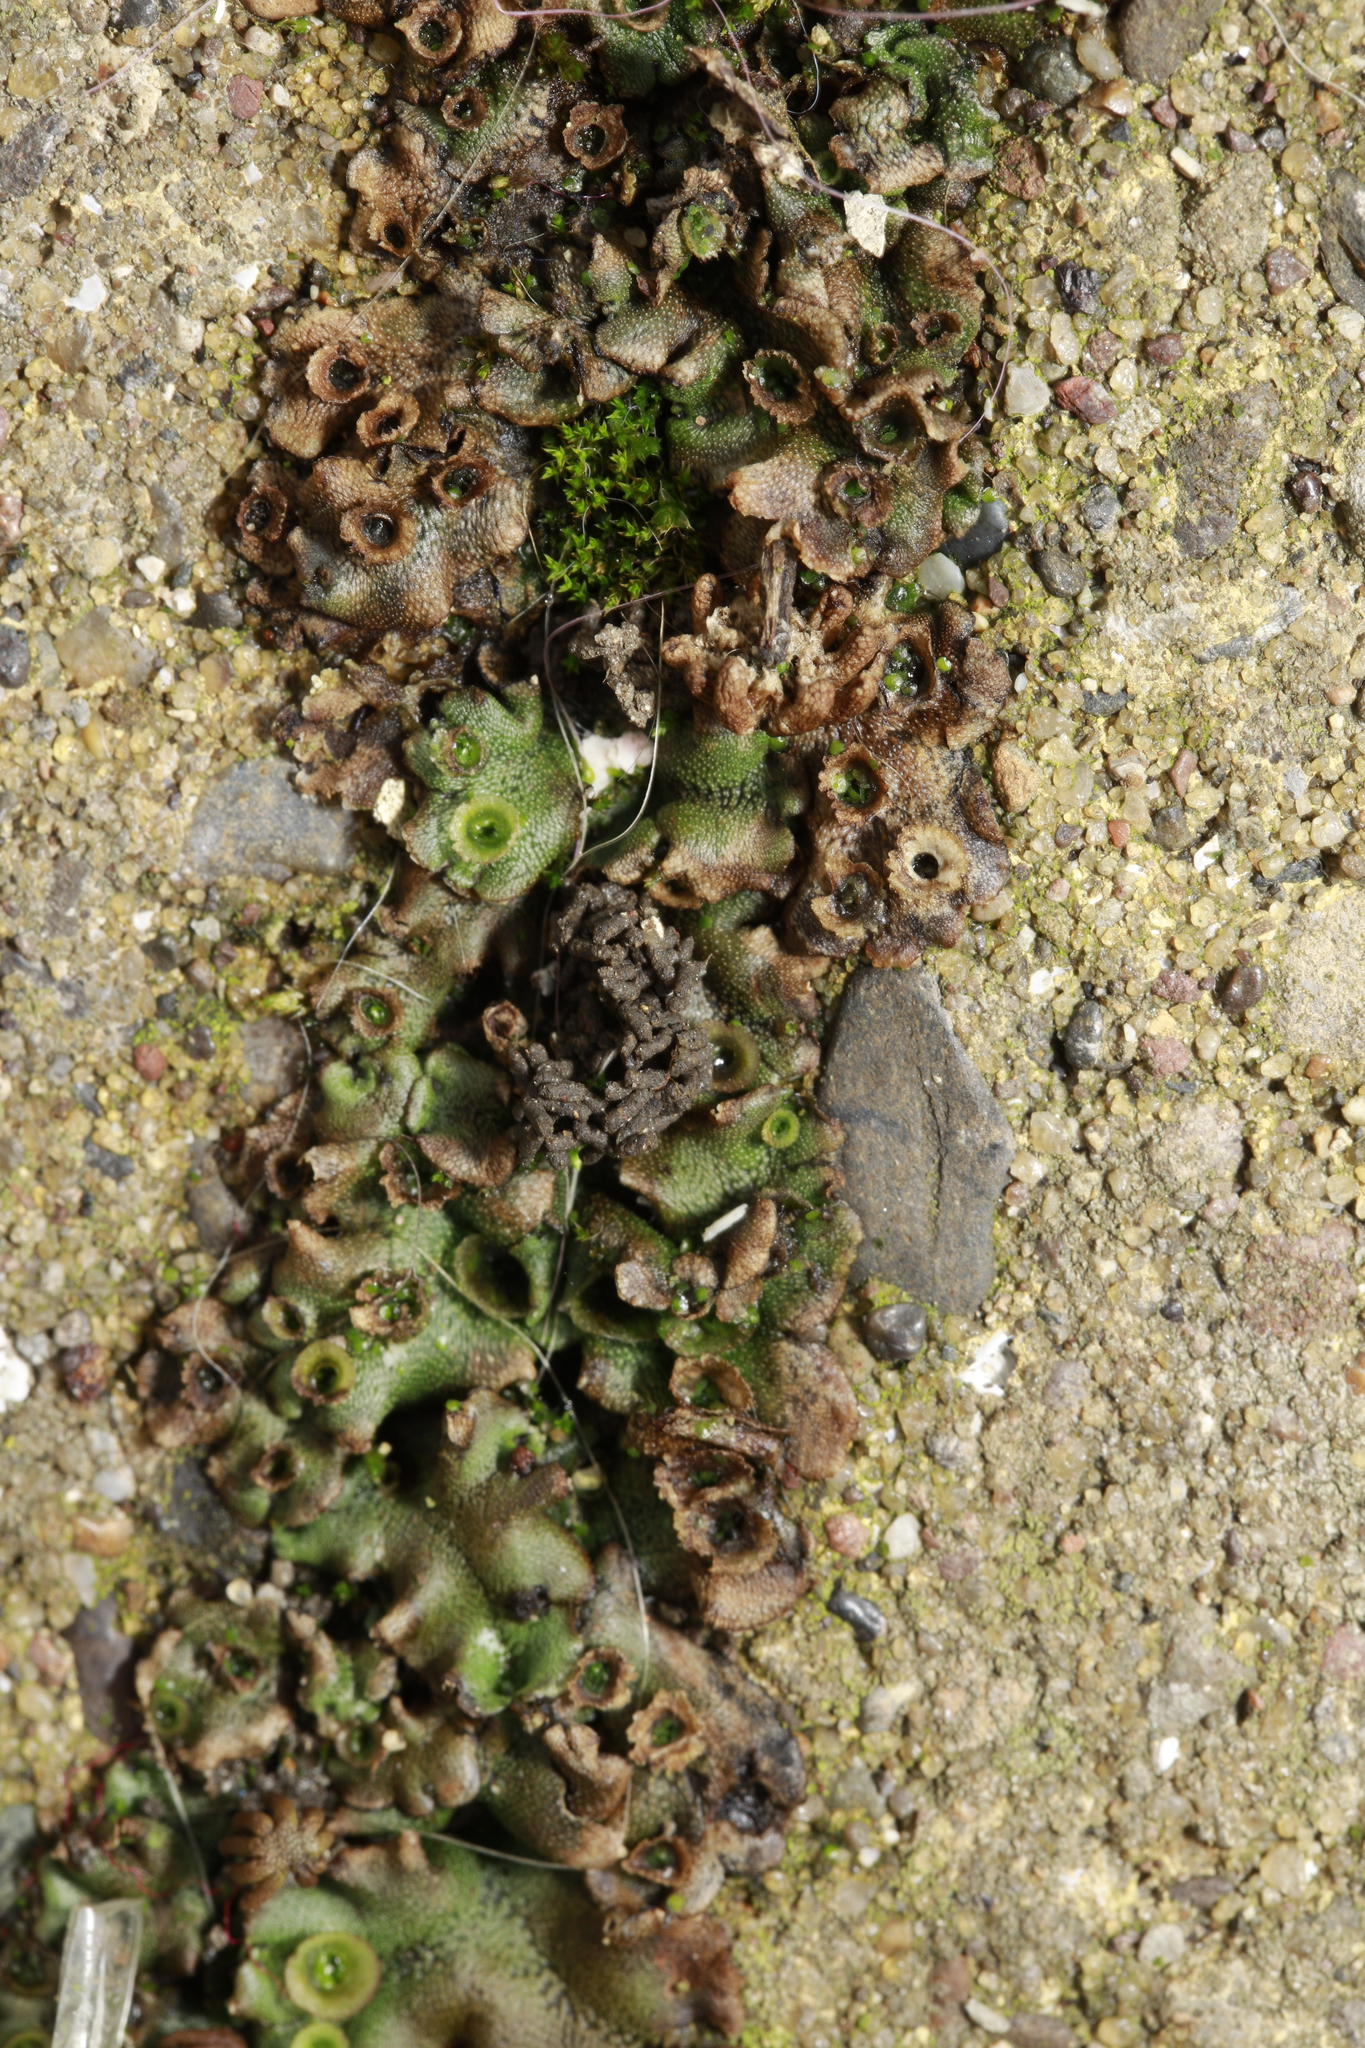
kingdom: Plantae
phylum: Marchantiophyta
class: Marchantiopsida
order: Marchantiales
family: Marchantiaceae
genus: Marchantia
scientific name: Marchantia polymorpha
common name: Common liverwort
